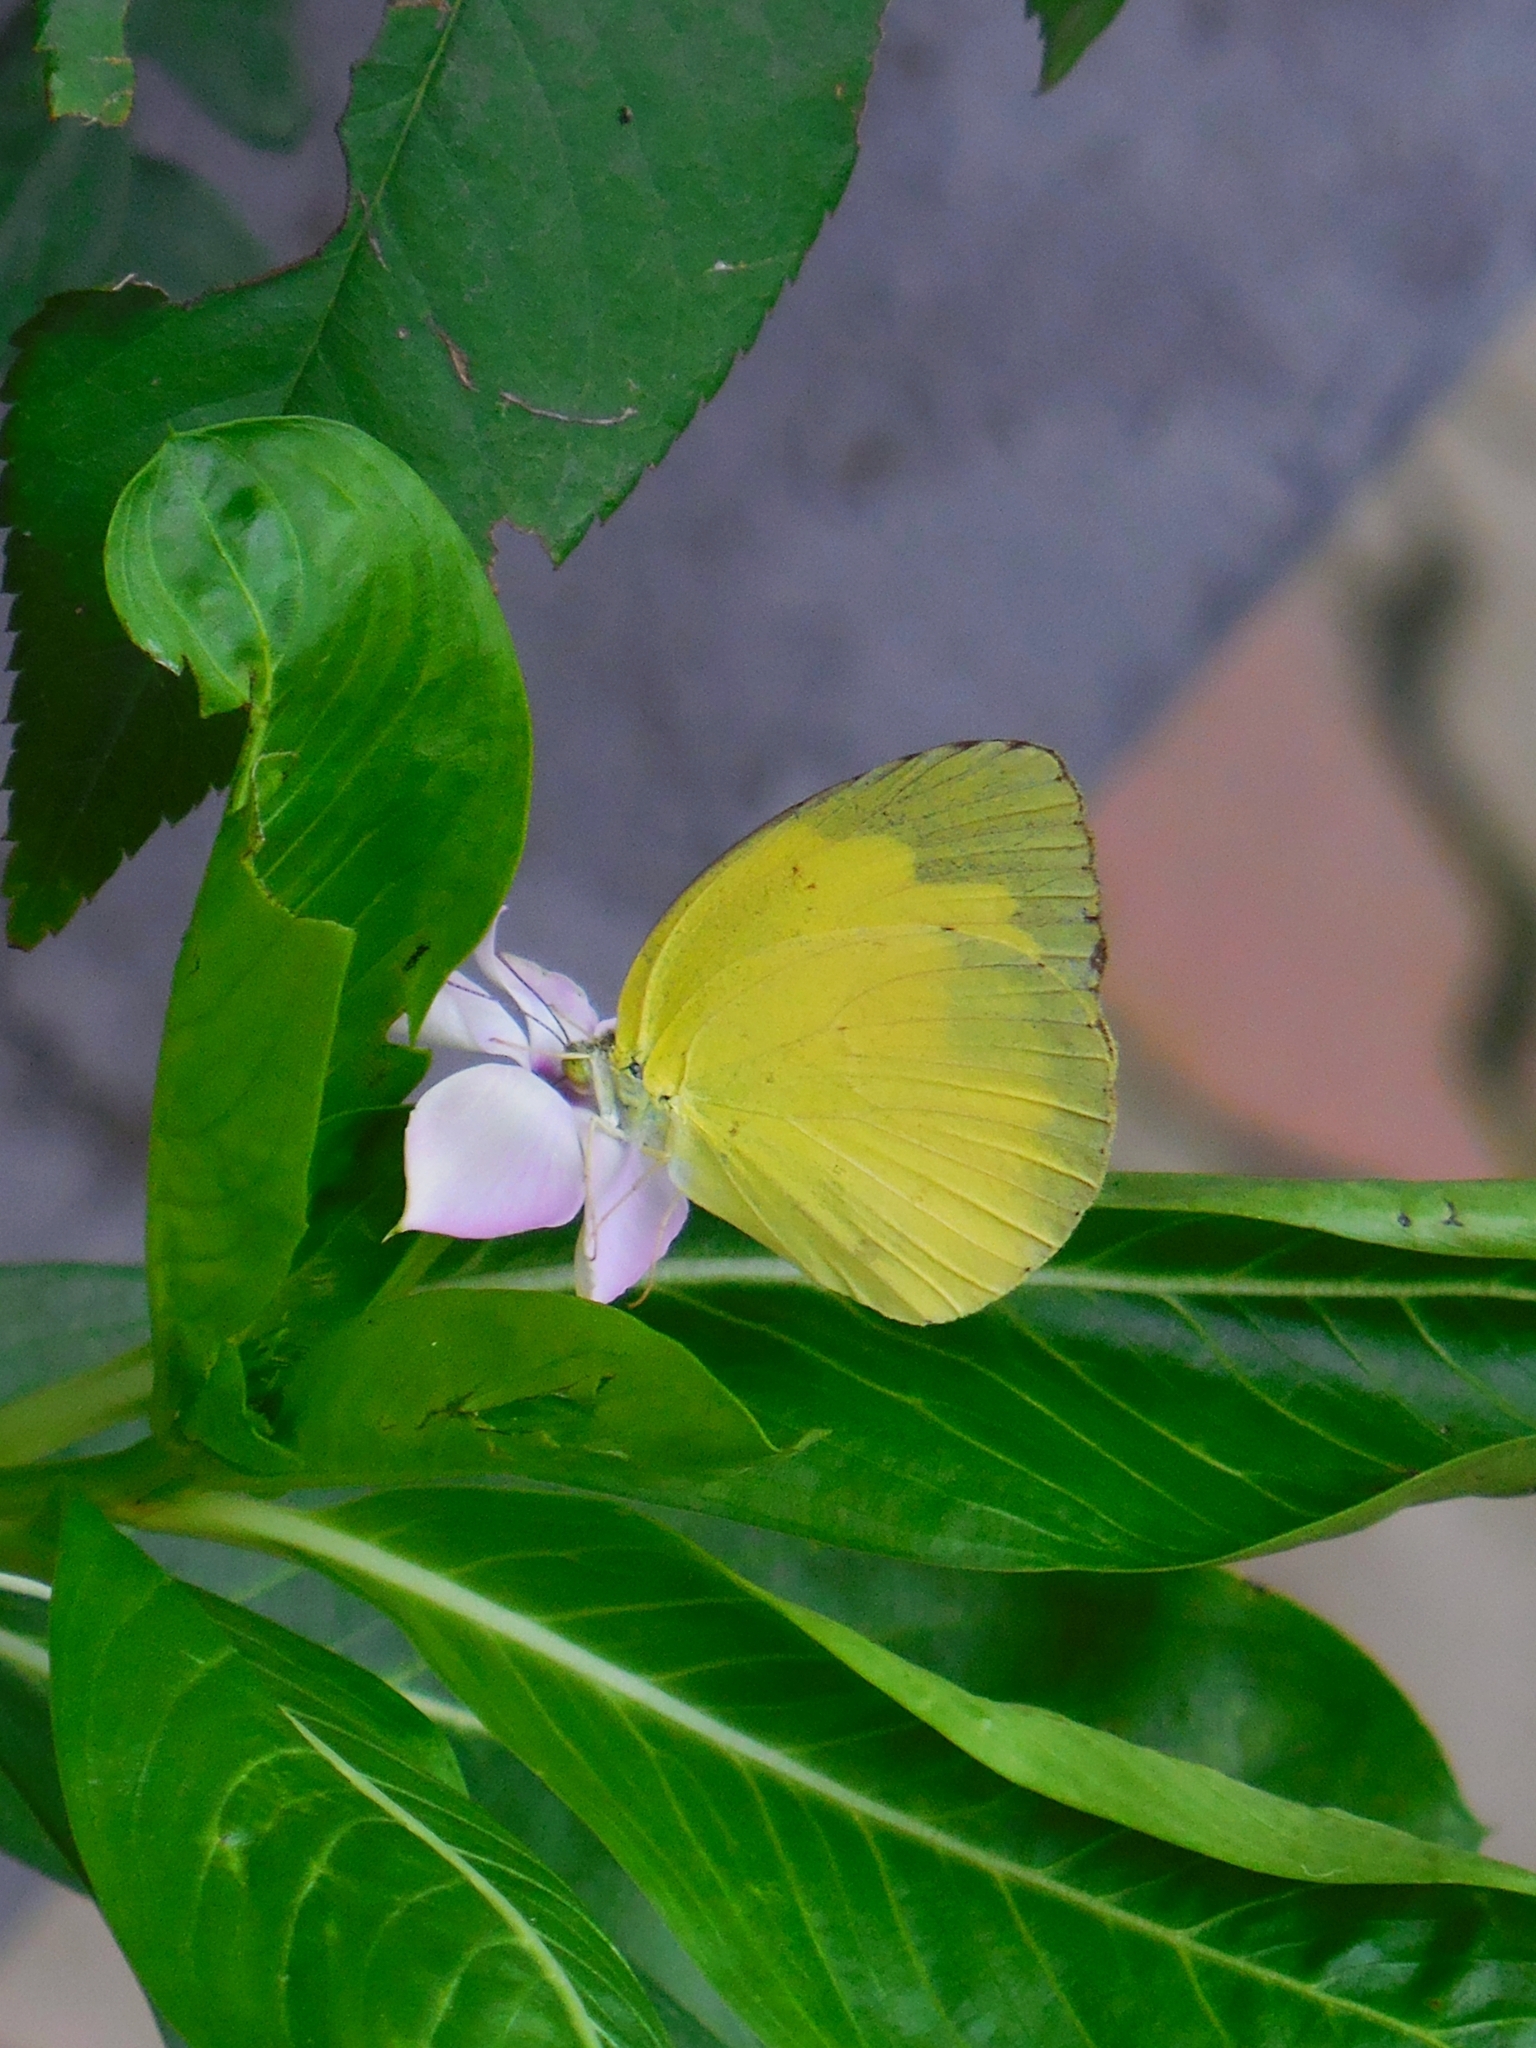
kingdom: Animalia
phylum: Arthropoda
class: Insecta
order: Lepidoptera
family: Pieridae
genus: Eurema
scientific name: Eurema hecabe
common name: Pale grass yellow
